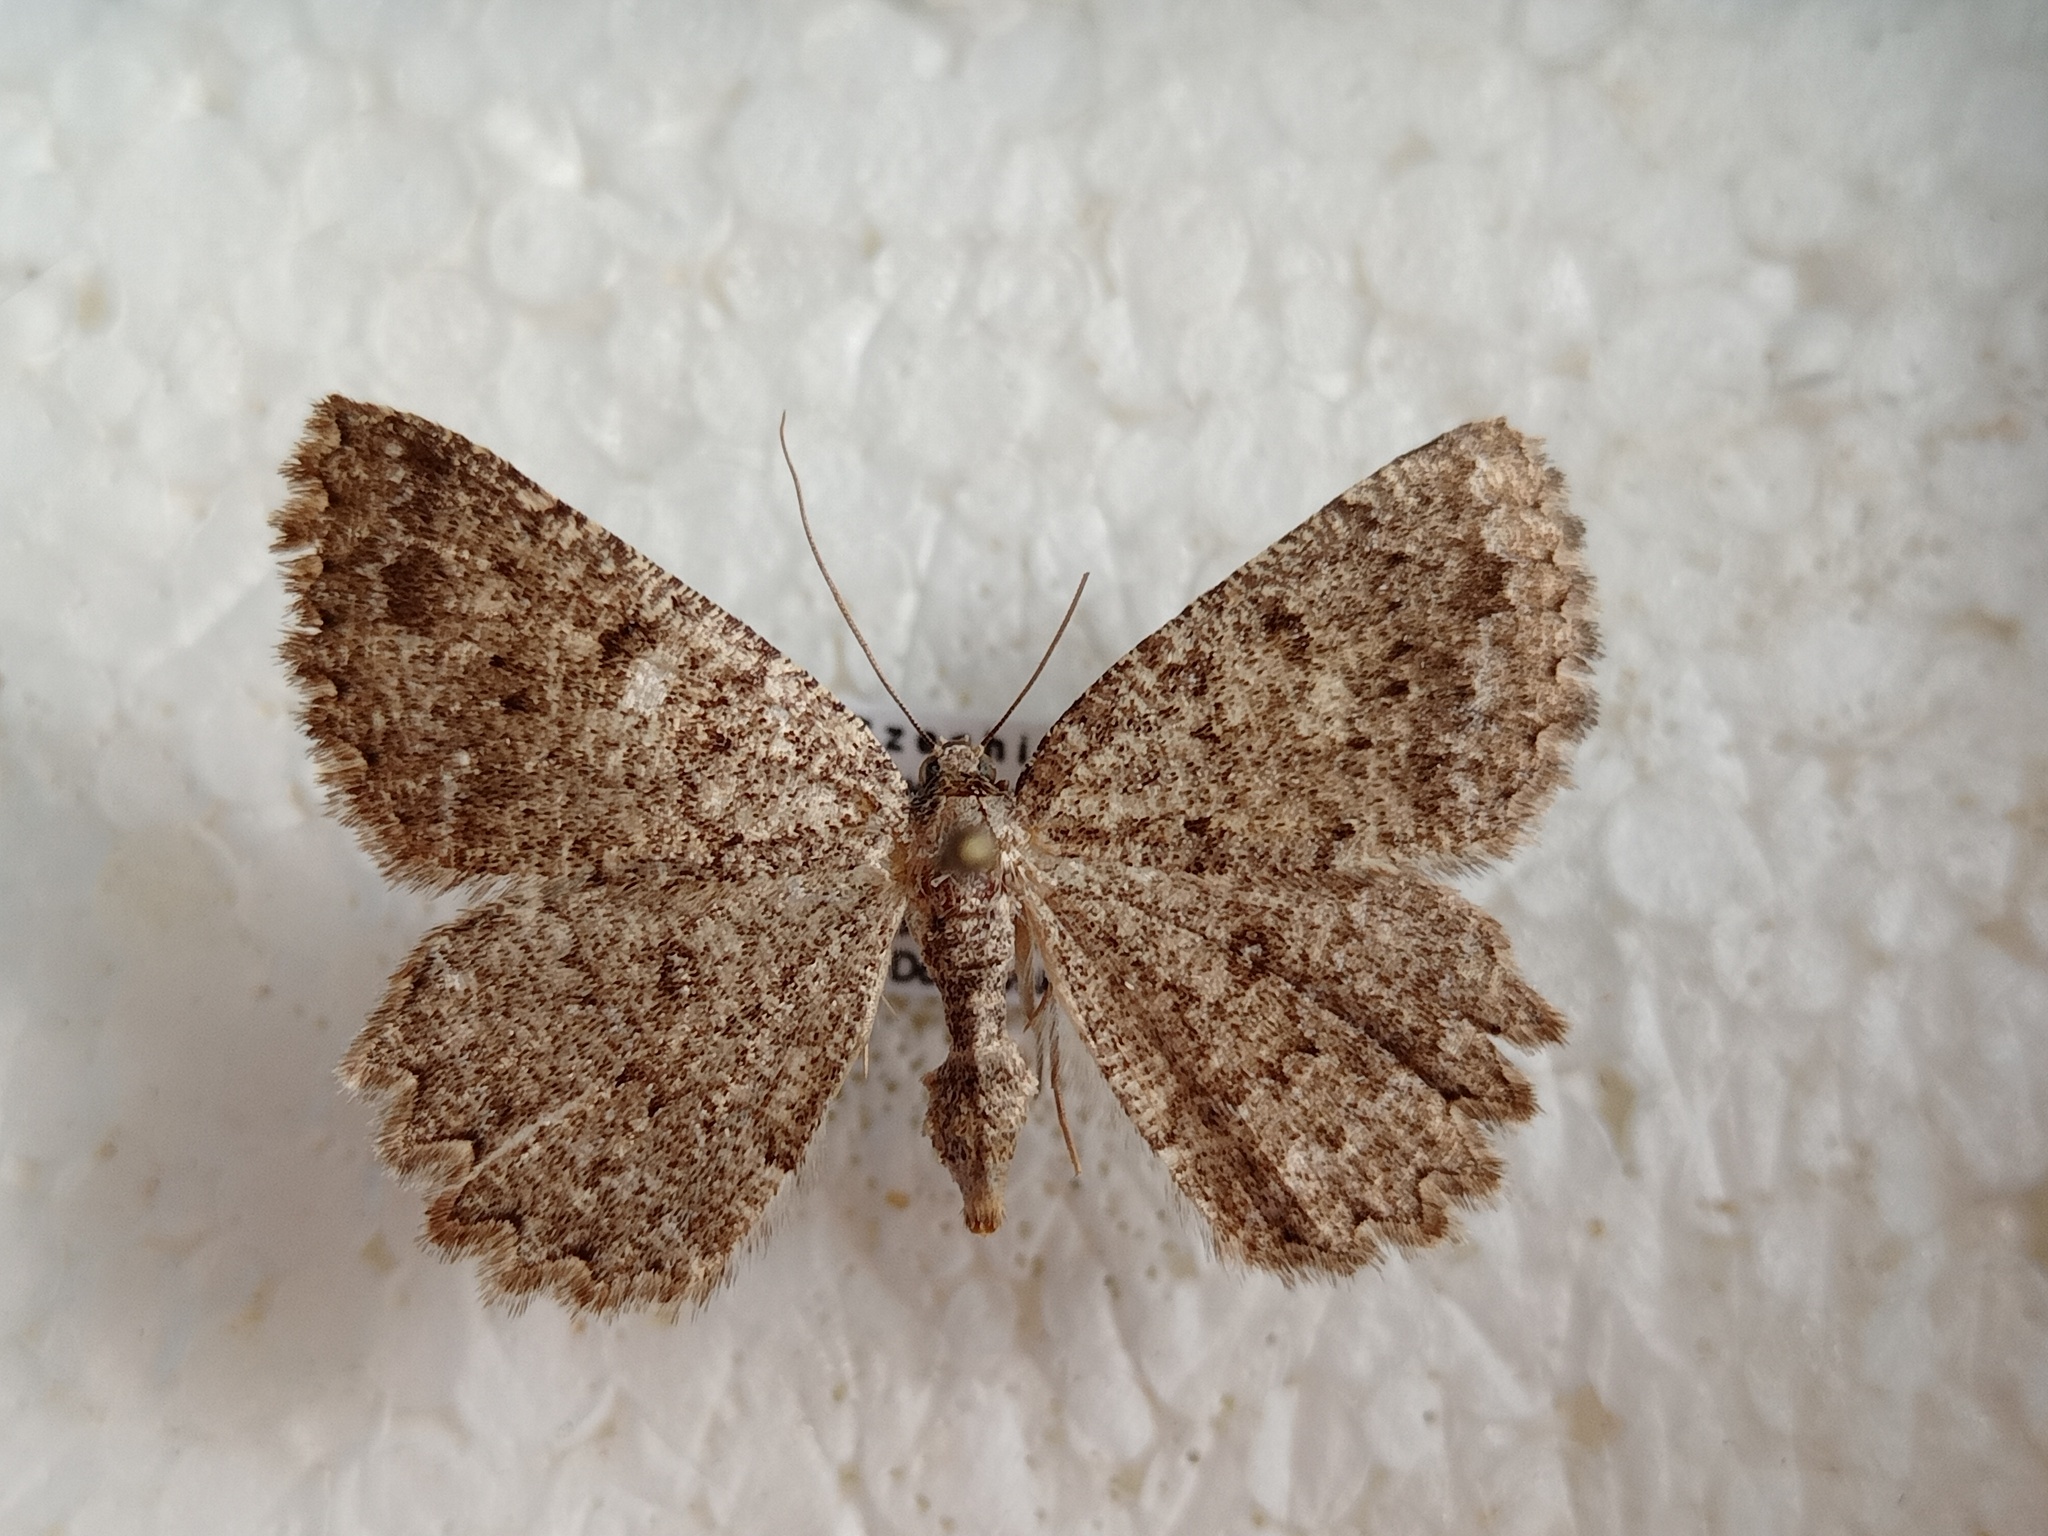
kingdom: Animalia
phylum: Arthropoda
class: Insecta
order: Lepidoptera
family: Geometridae
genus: Charissa
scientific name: Charissa obscurata
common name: Annulet
